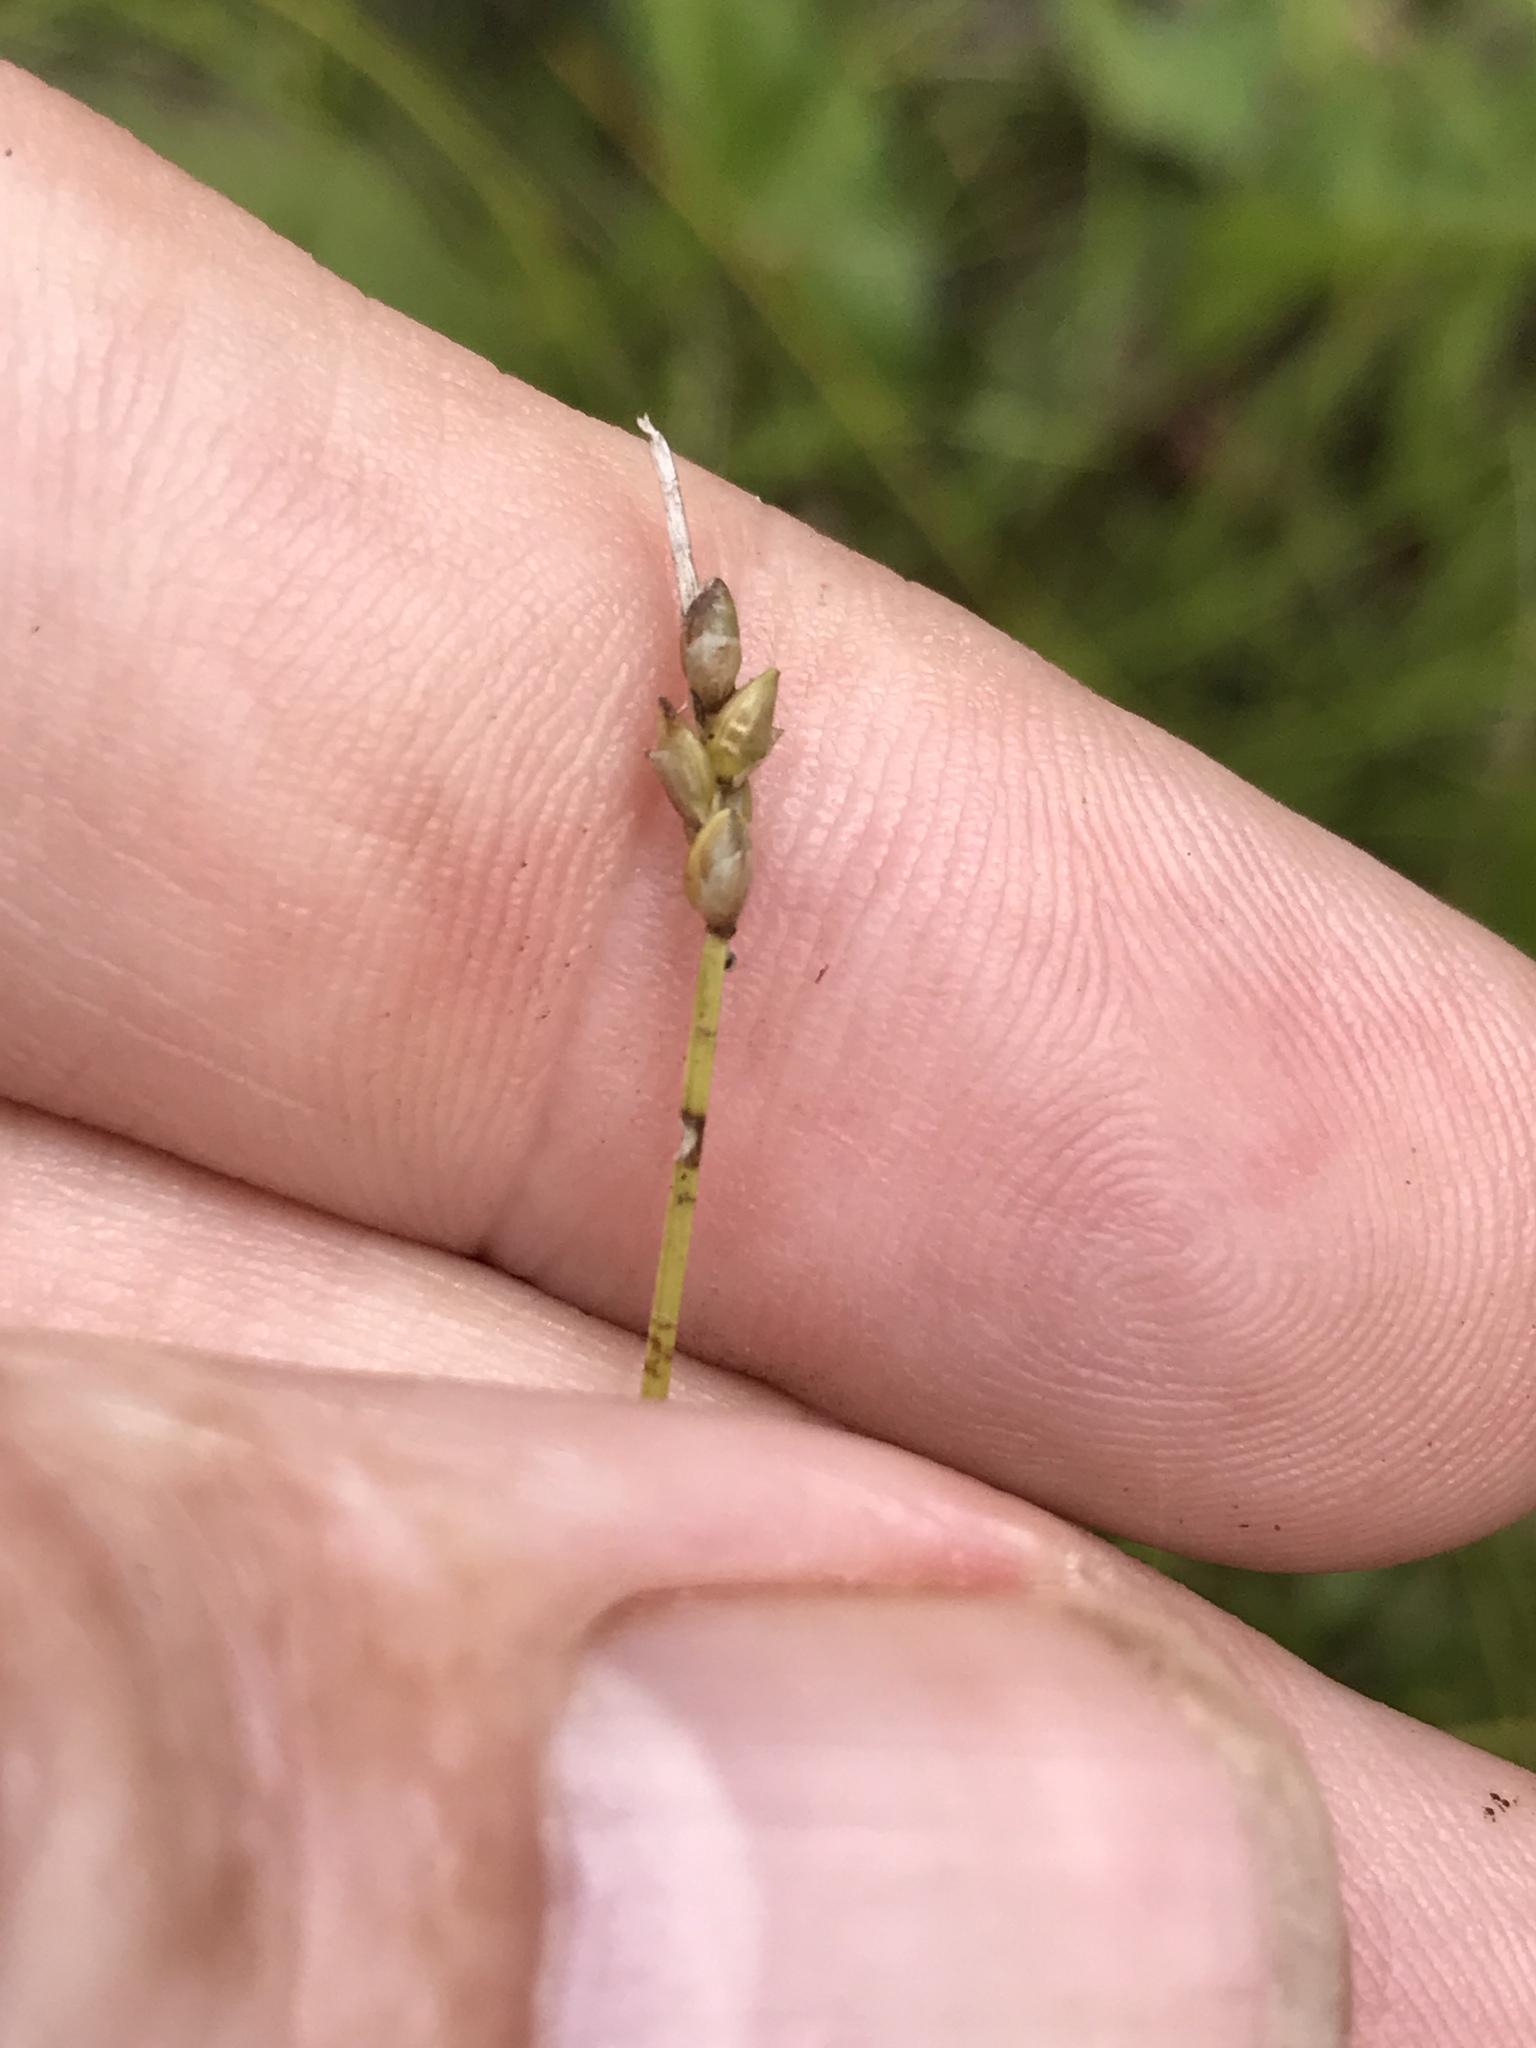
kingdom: Plantae
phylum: Tracheophyta
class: Liliopsida
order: Poales
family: Cyperaceae
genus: Carex
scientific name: Carex leptalea
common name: Bristly-stalked sedge
